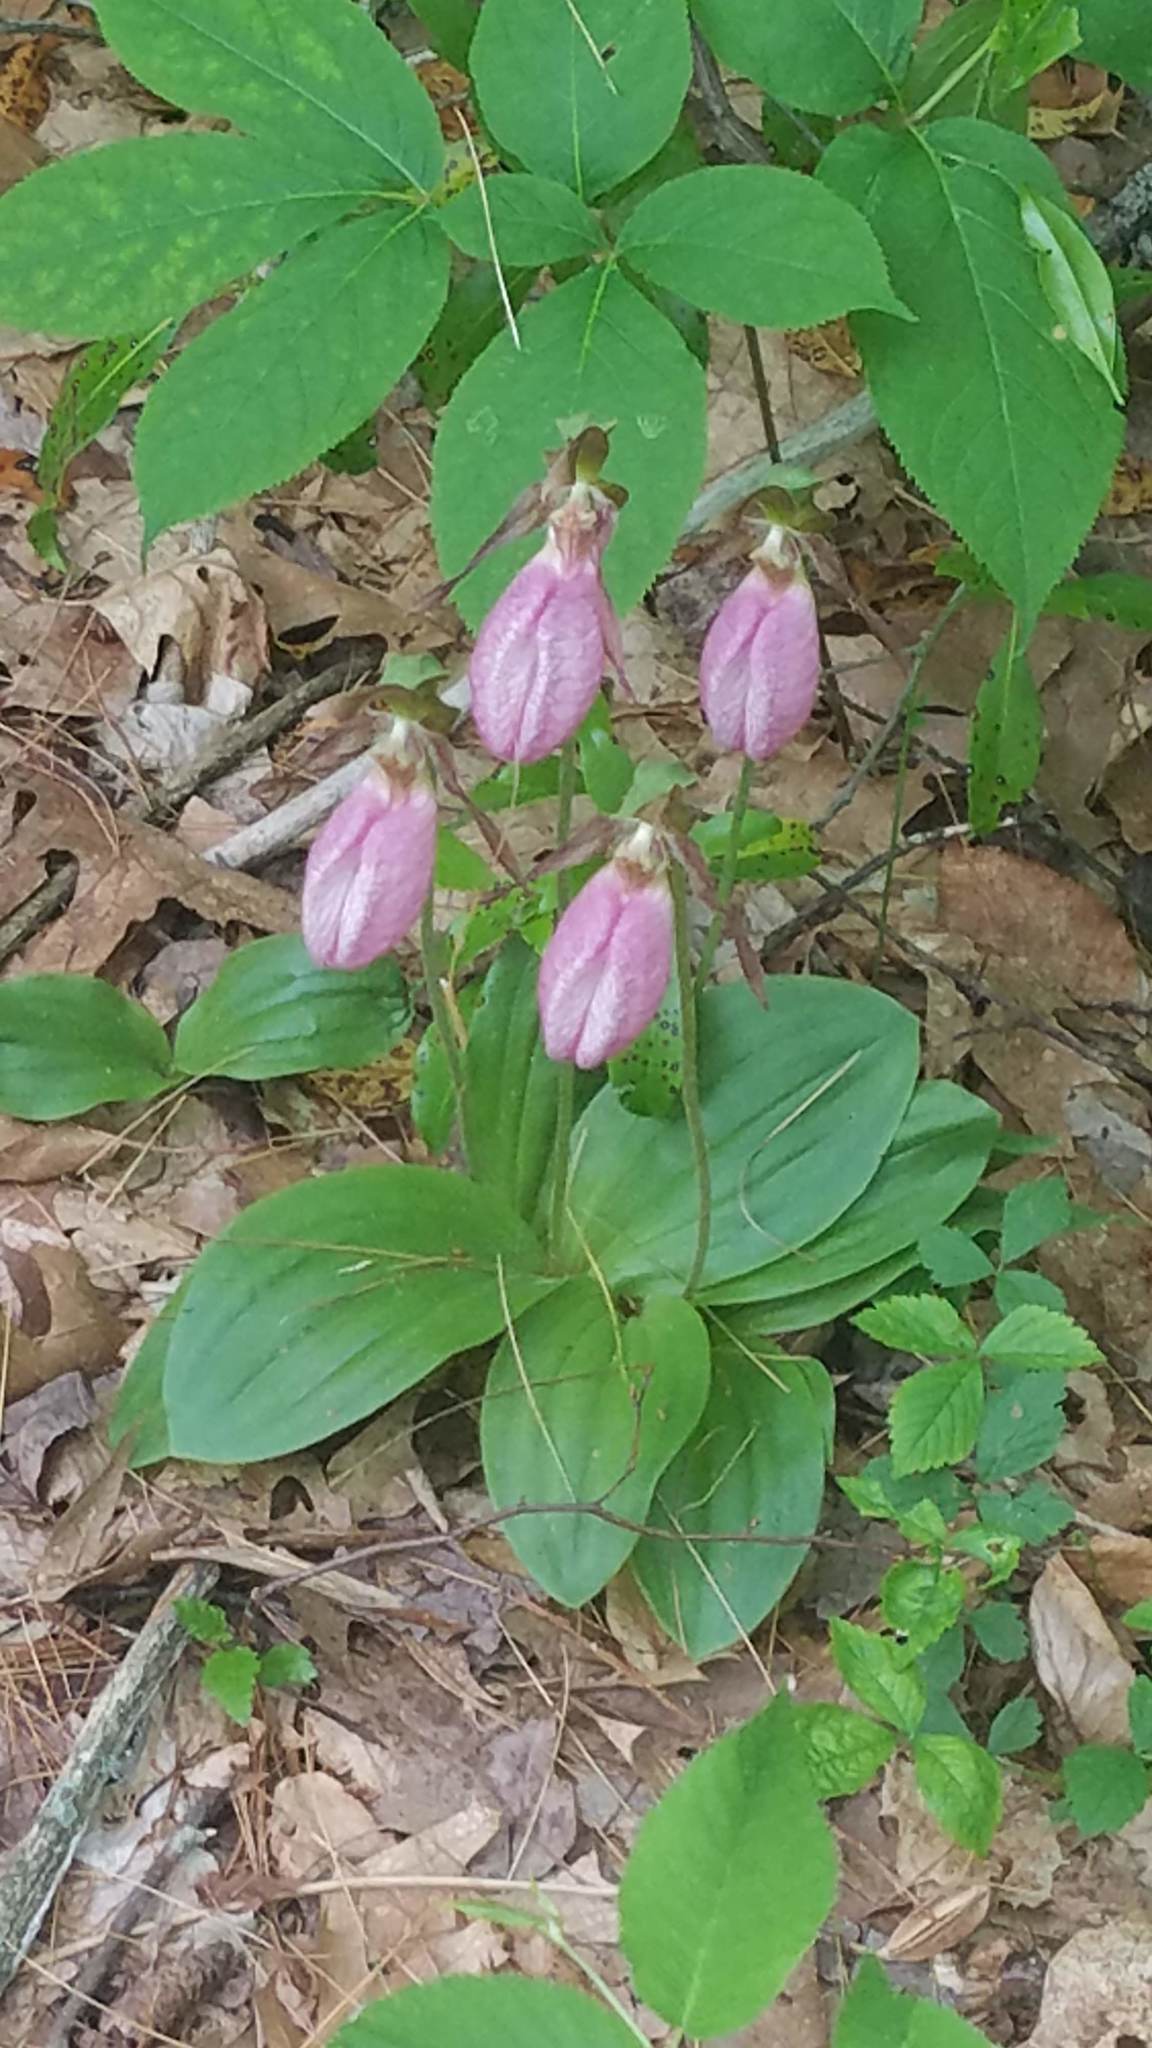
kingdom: Plantae
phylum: Tracheophyta
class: Liliopsida
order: Asparagales
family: Orchidaceae
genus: Cypripedium
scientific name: Cypripedium acaule
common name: Pink lady's-slipper
